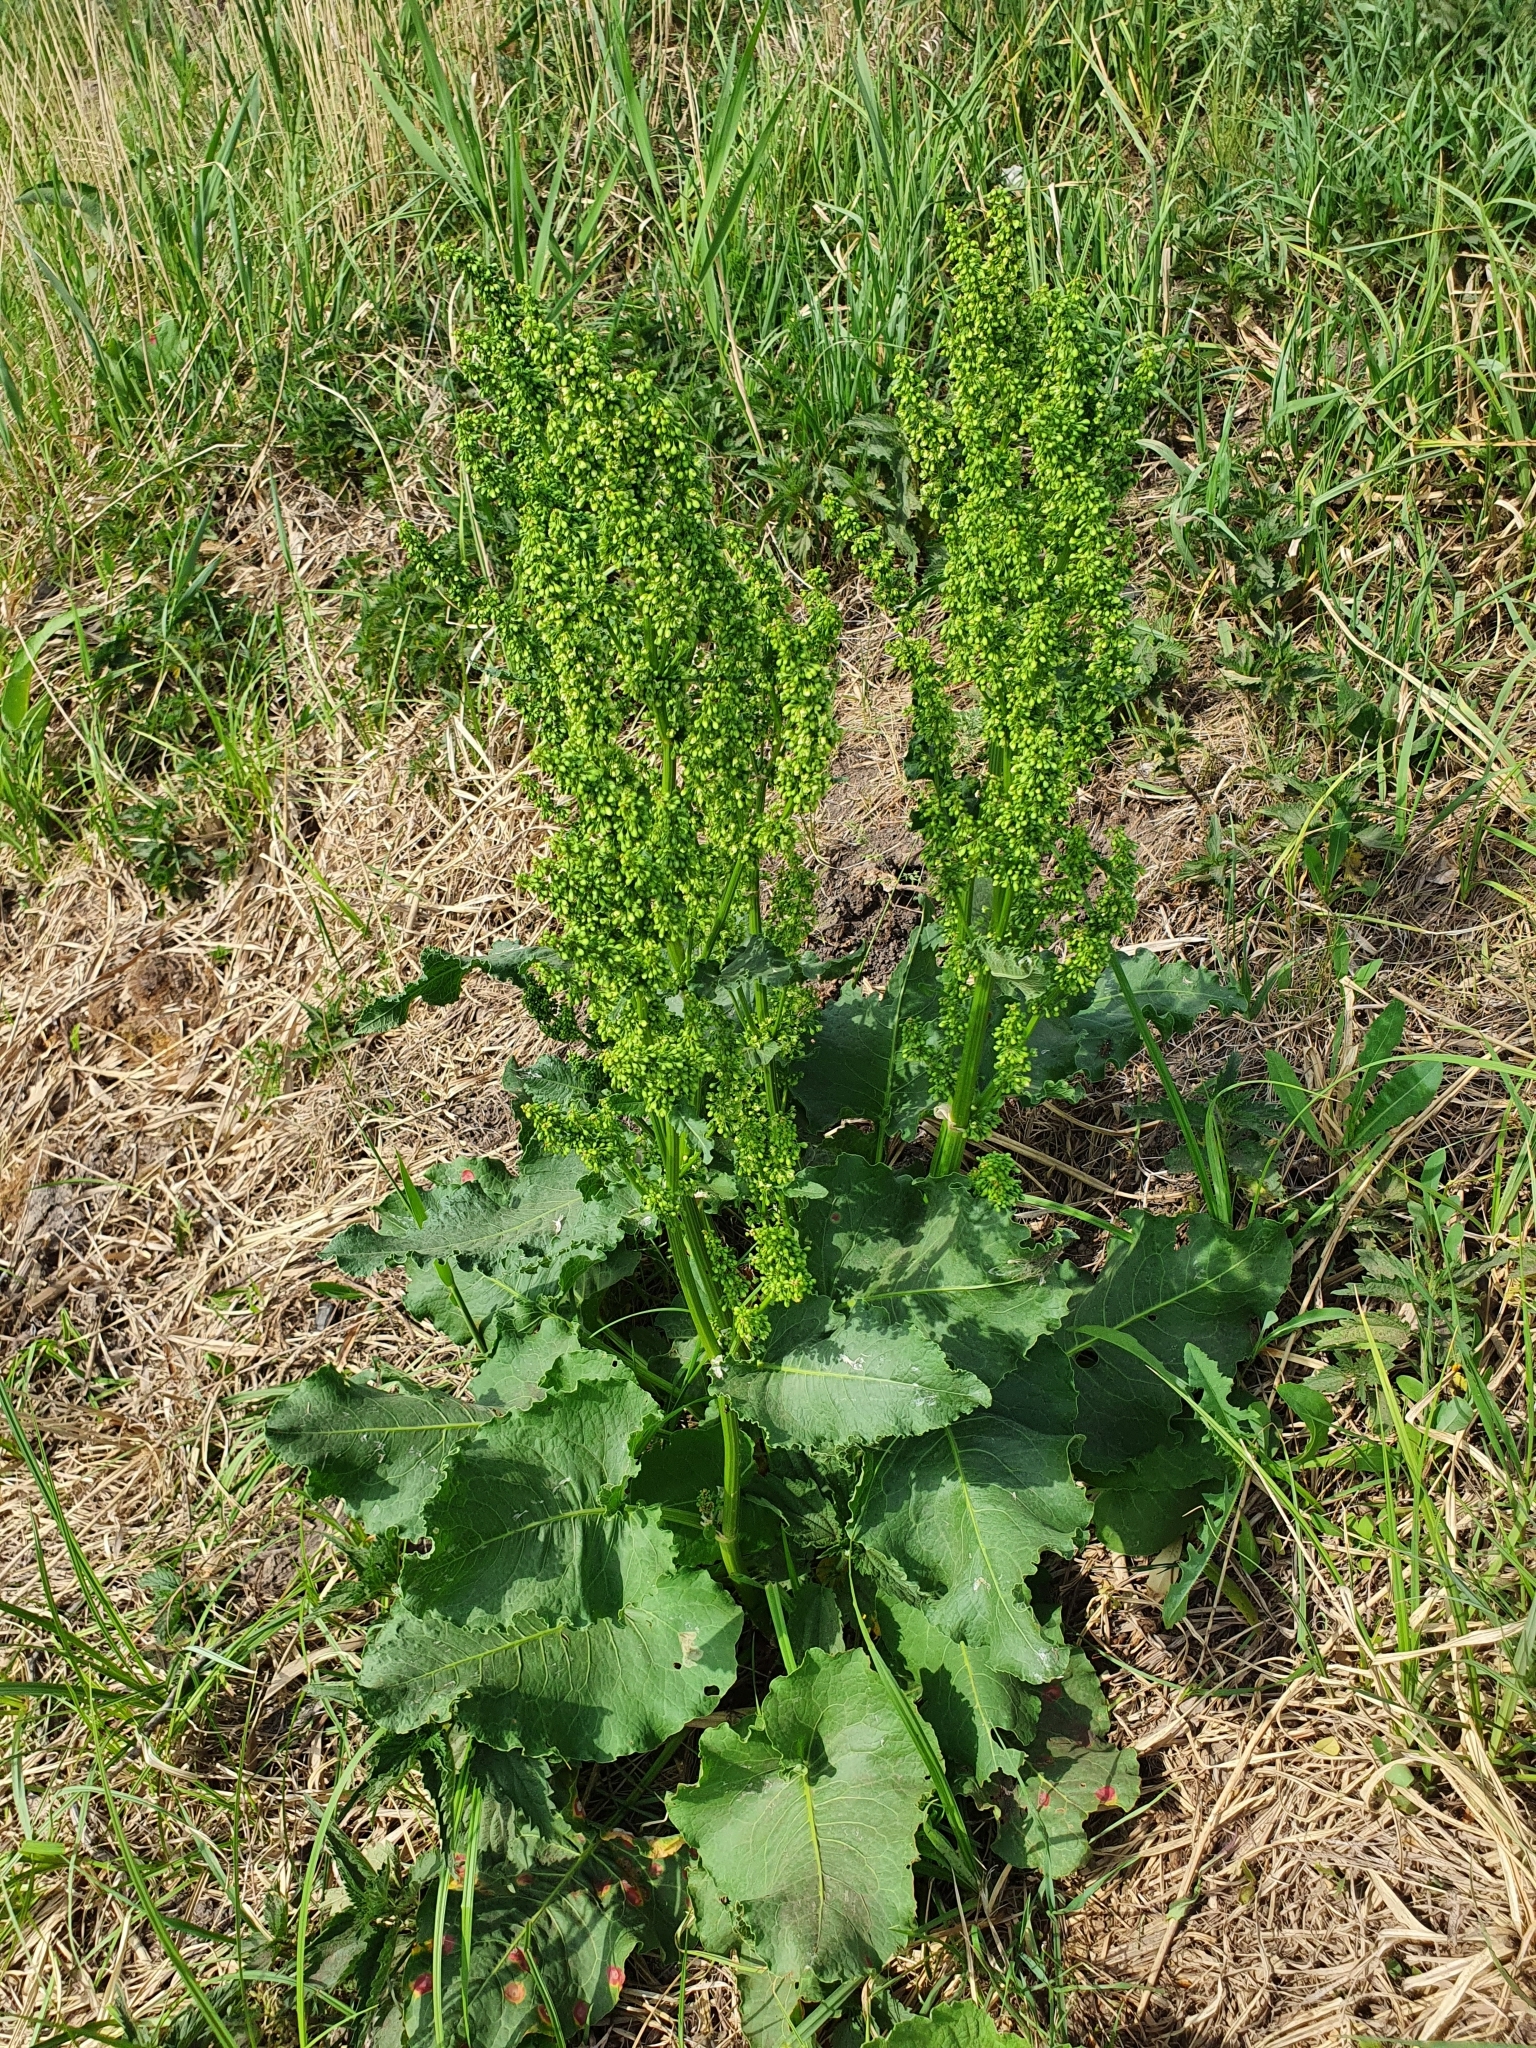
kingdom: Plantae
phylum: Tracheophyta
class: Magnoliopsida
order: Caryophyllales
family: Polygonaceae
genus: Rumex
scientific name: Rumex confertus
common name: Russian dock
